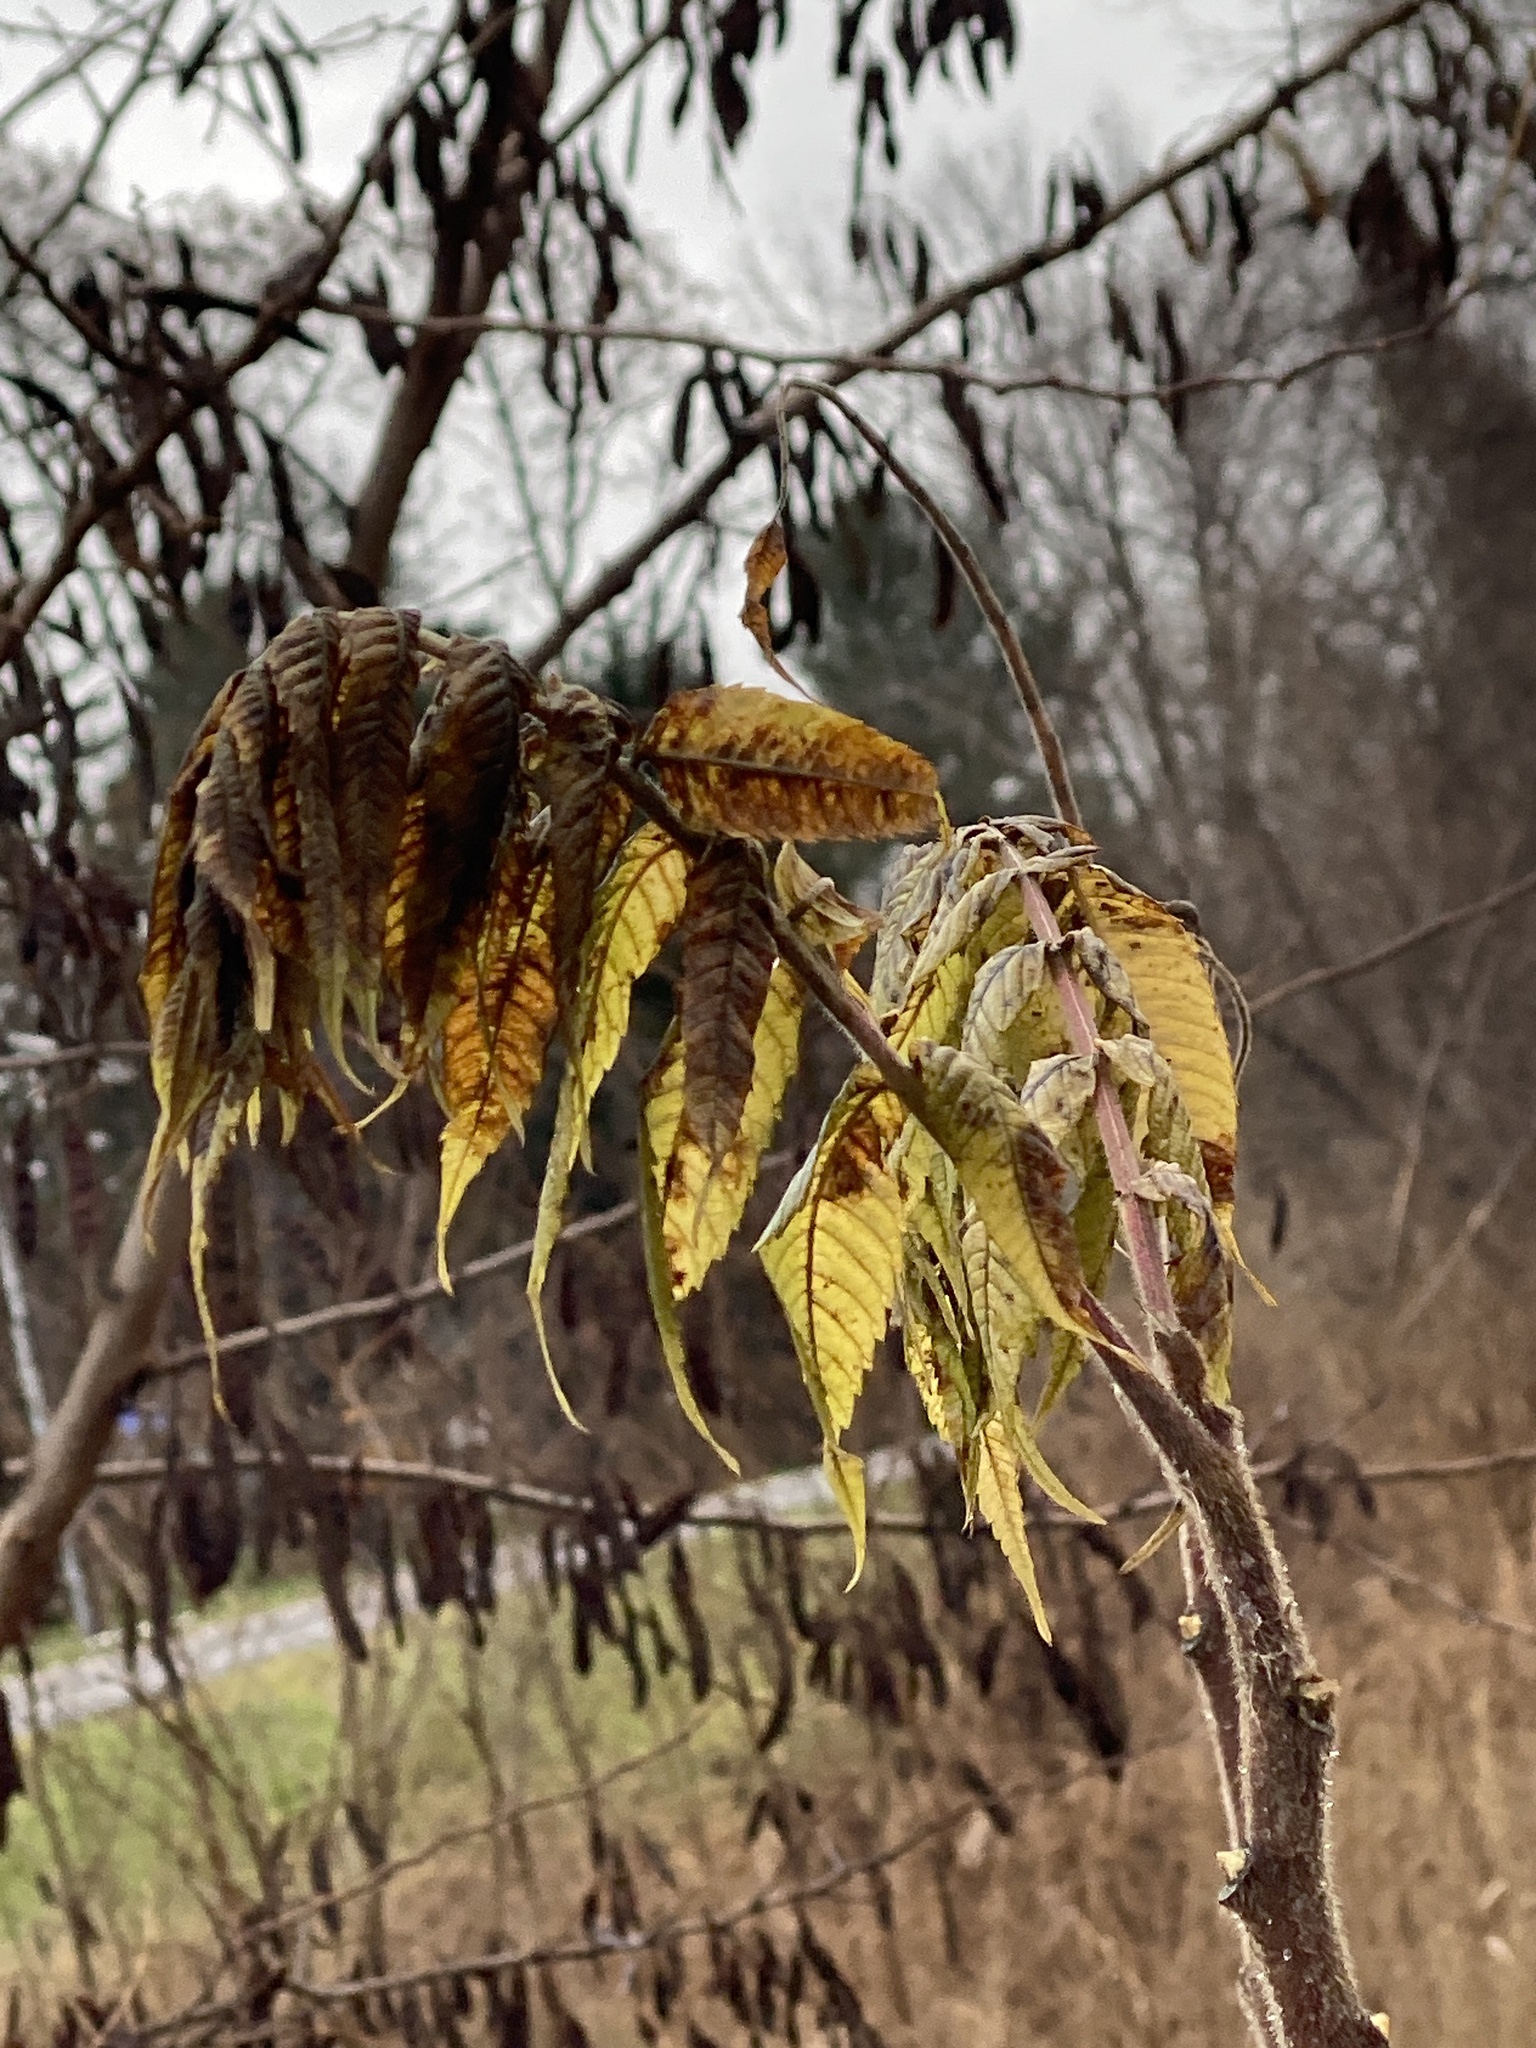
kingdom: Plantae
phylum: Tracheophyta
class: Magnoliopsida
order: Sapindales
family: Anacardiaceae
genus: Rhus
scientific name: Rhus typhina
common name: Staghorn sumac
